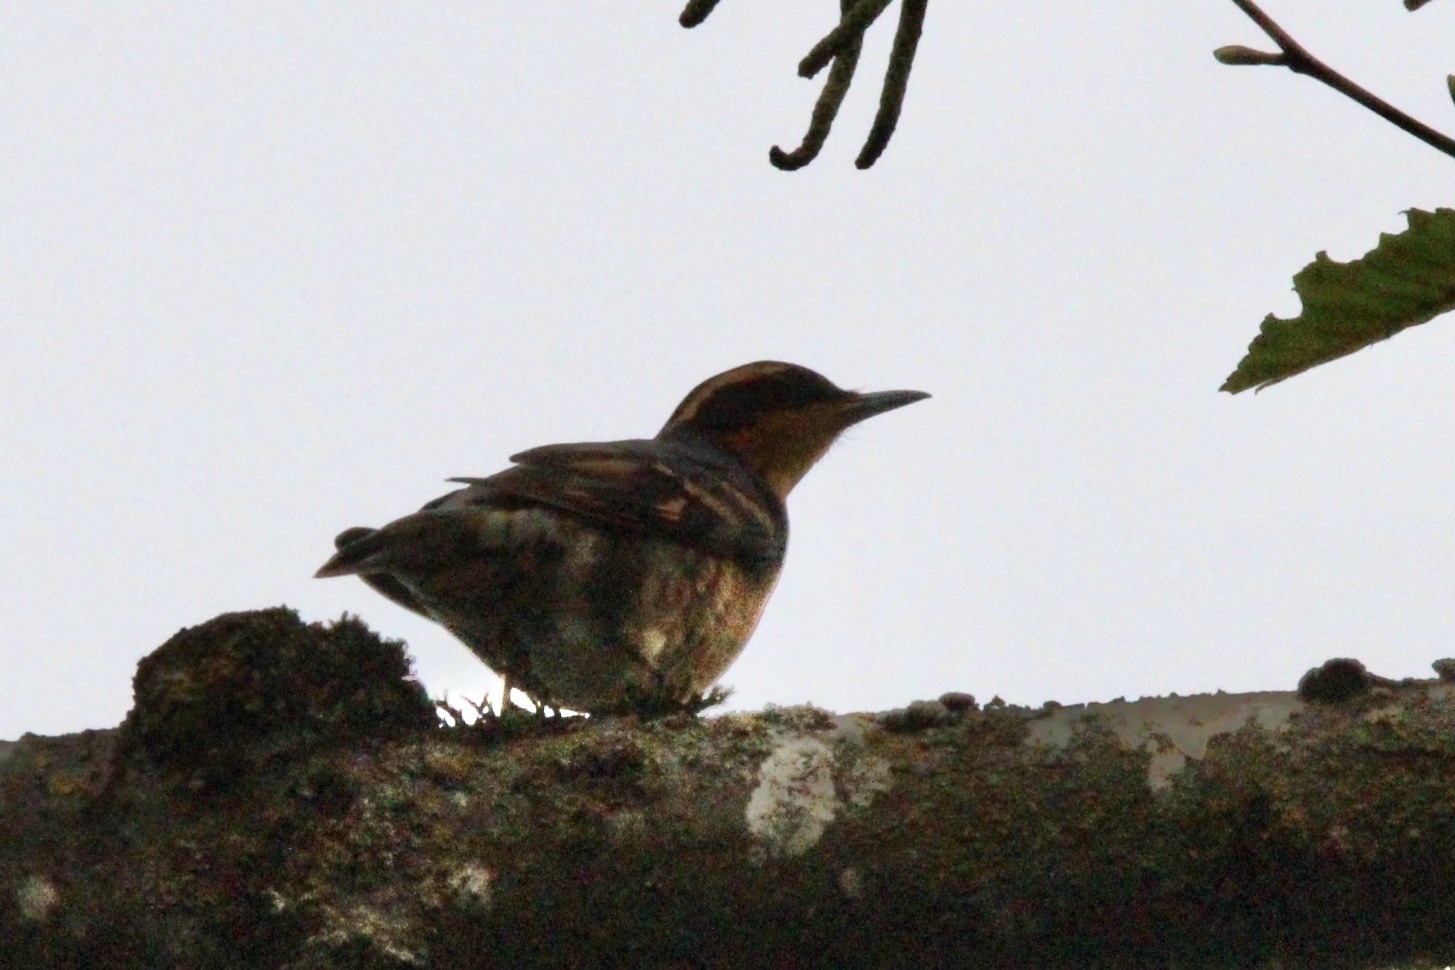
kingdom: Animalia
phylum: Chordata
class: Aves
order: Passeriformes
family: Turdidae
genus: Ixoreus
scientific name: Ixoreus naevius
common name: Varied thrush
